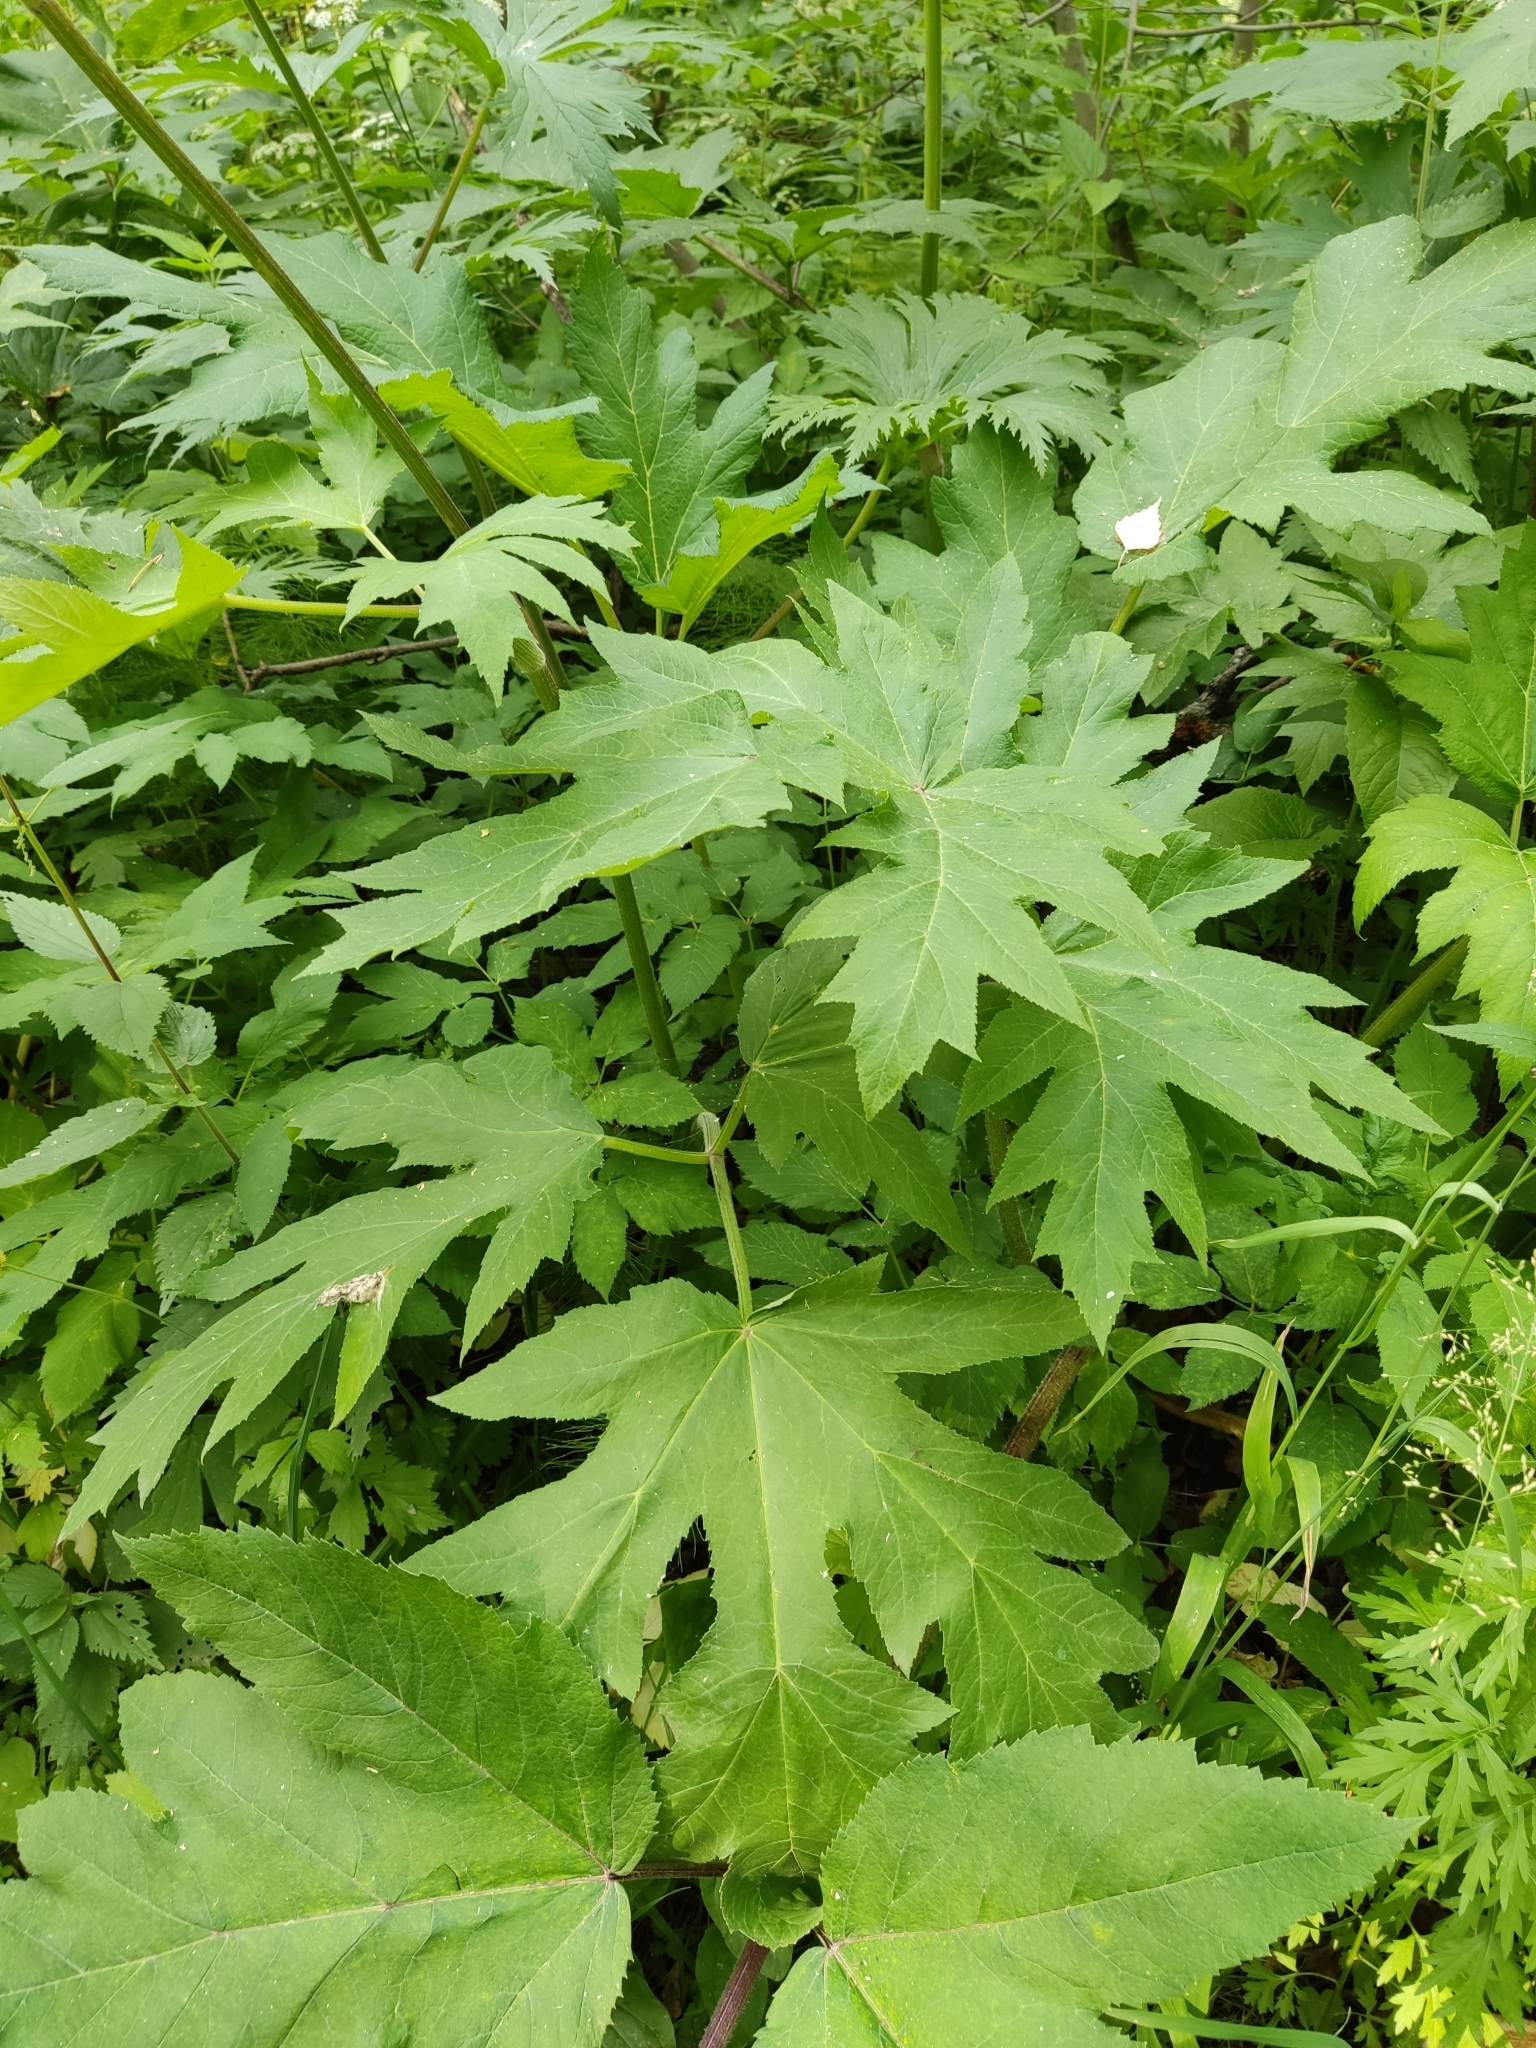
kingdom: Plantae
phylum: Tracheophyta
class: Magnoliopsida
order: Apiales
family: Apiaceae
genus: Heracleum
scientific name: Heracleum dissectum
